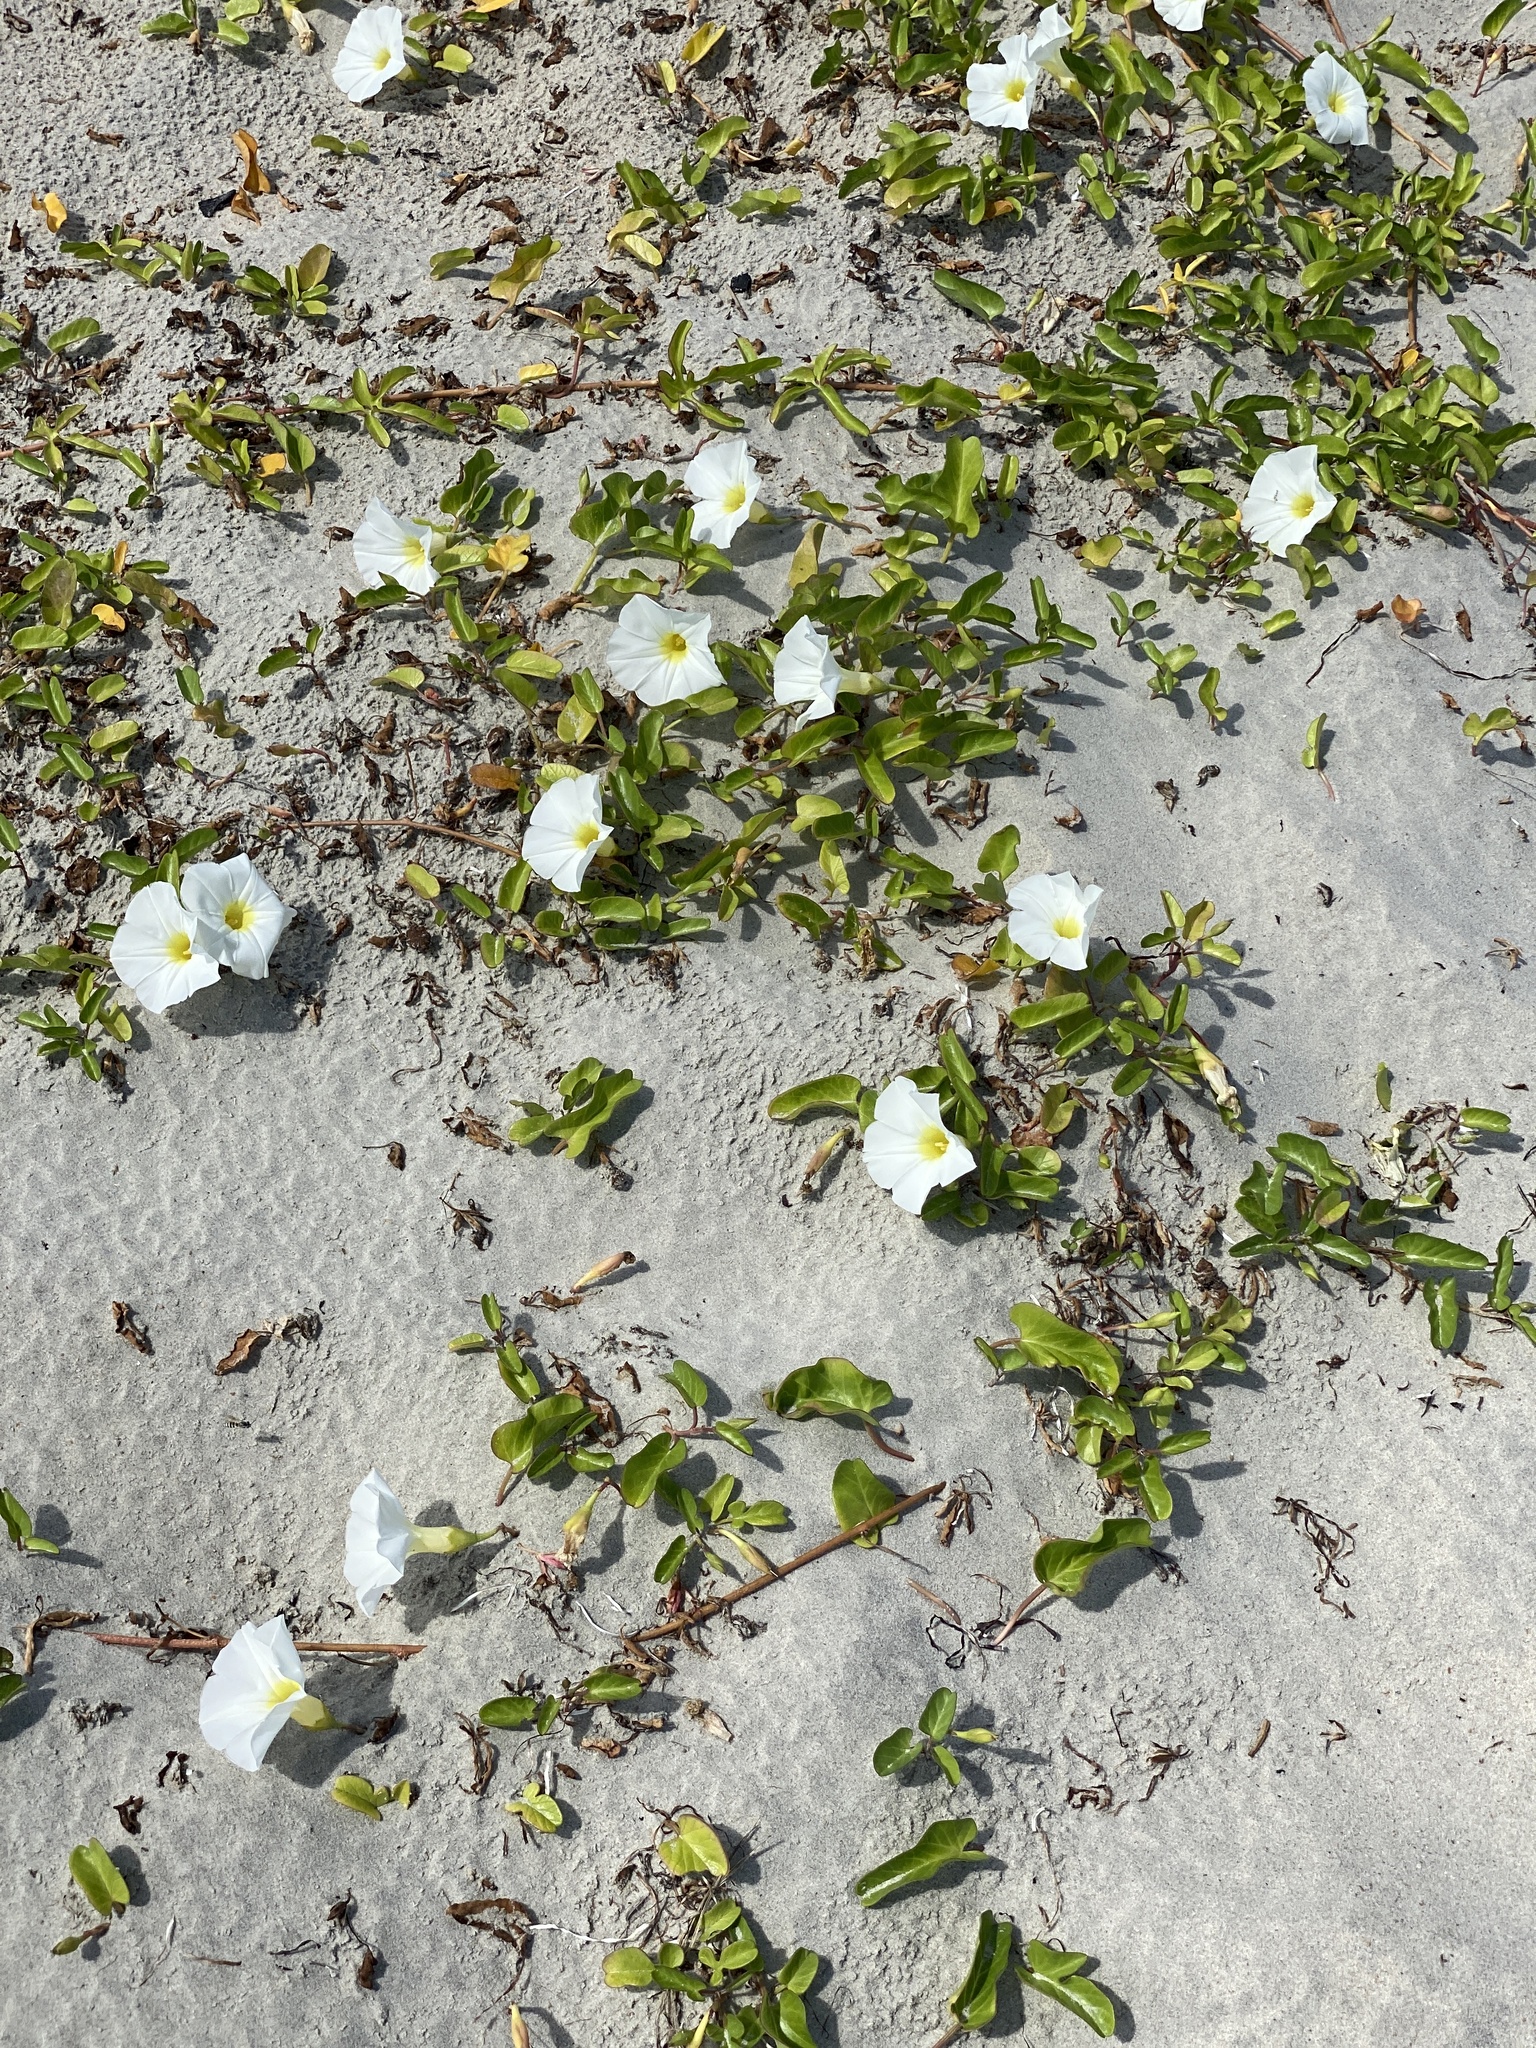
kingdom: Plantae
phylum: Tracheophyta
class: Magnoliopsida
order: Solanales
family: Convolvulaceae
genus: Ipomoea
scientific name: Ipomoea imperati
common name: Fiddle-leaf morning-glory
